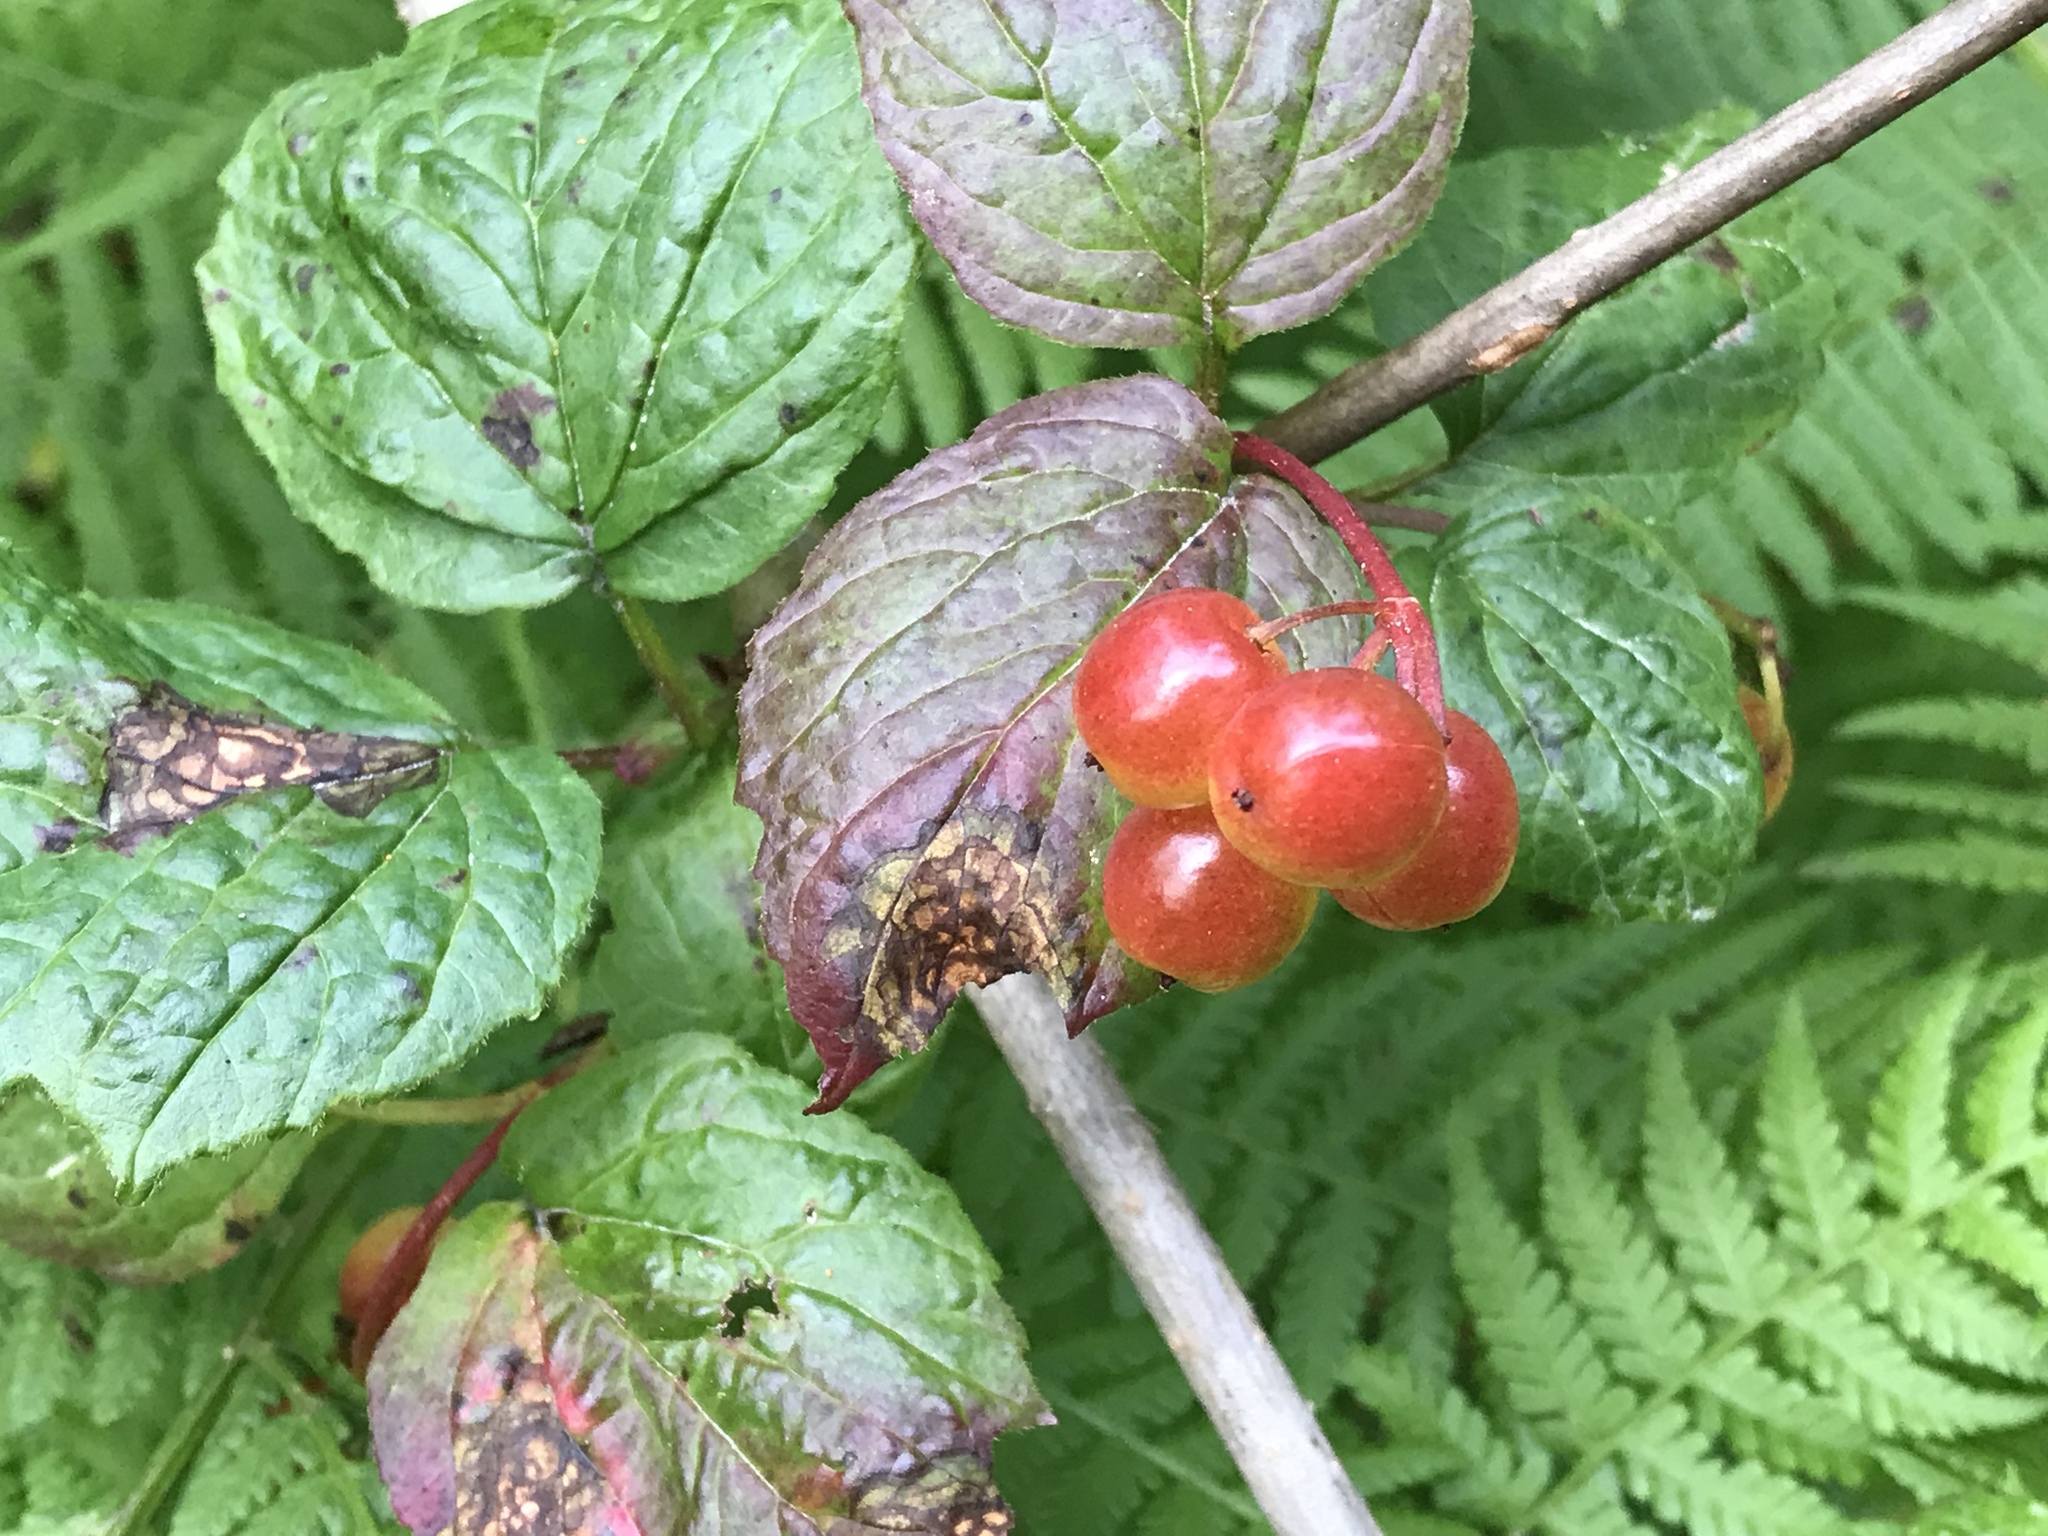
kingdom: Plantae
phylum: Tracheophyta
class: Magnoliopsida
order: Dipsacales
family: Viburnaceae
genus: Viburnum
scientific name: Viburnum edule
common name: Mooseberry
